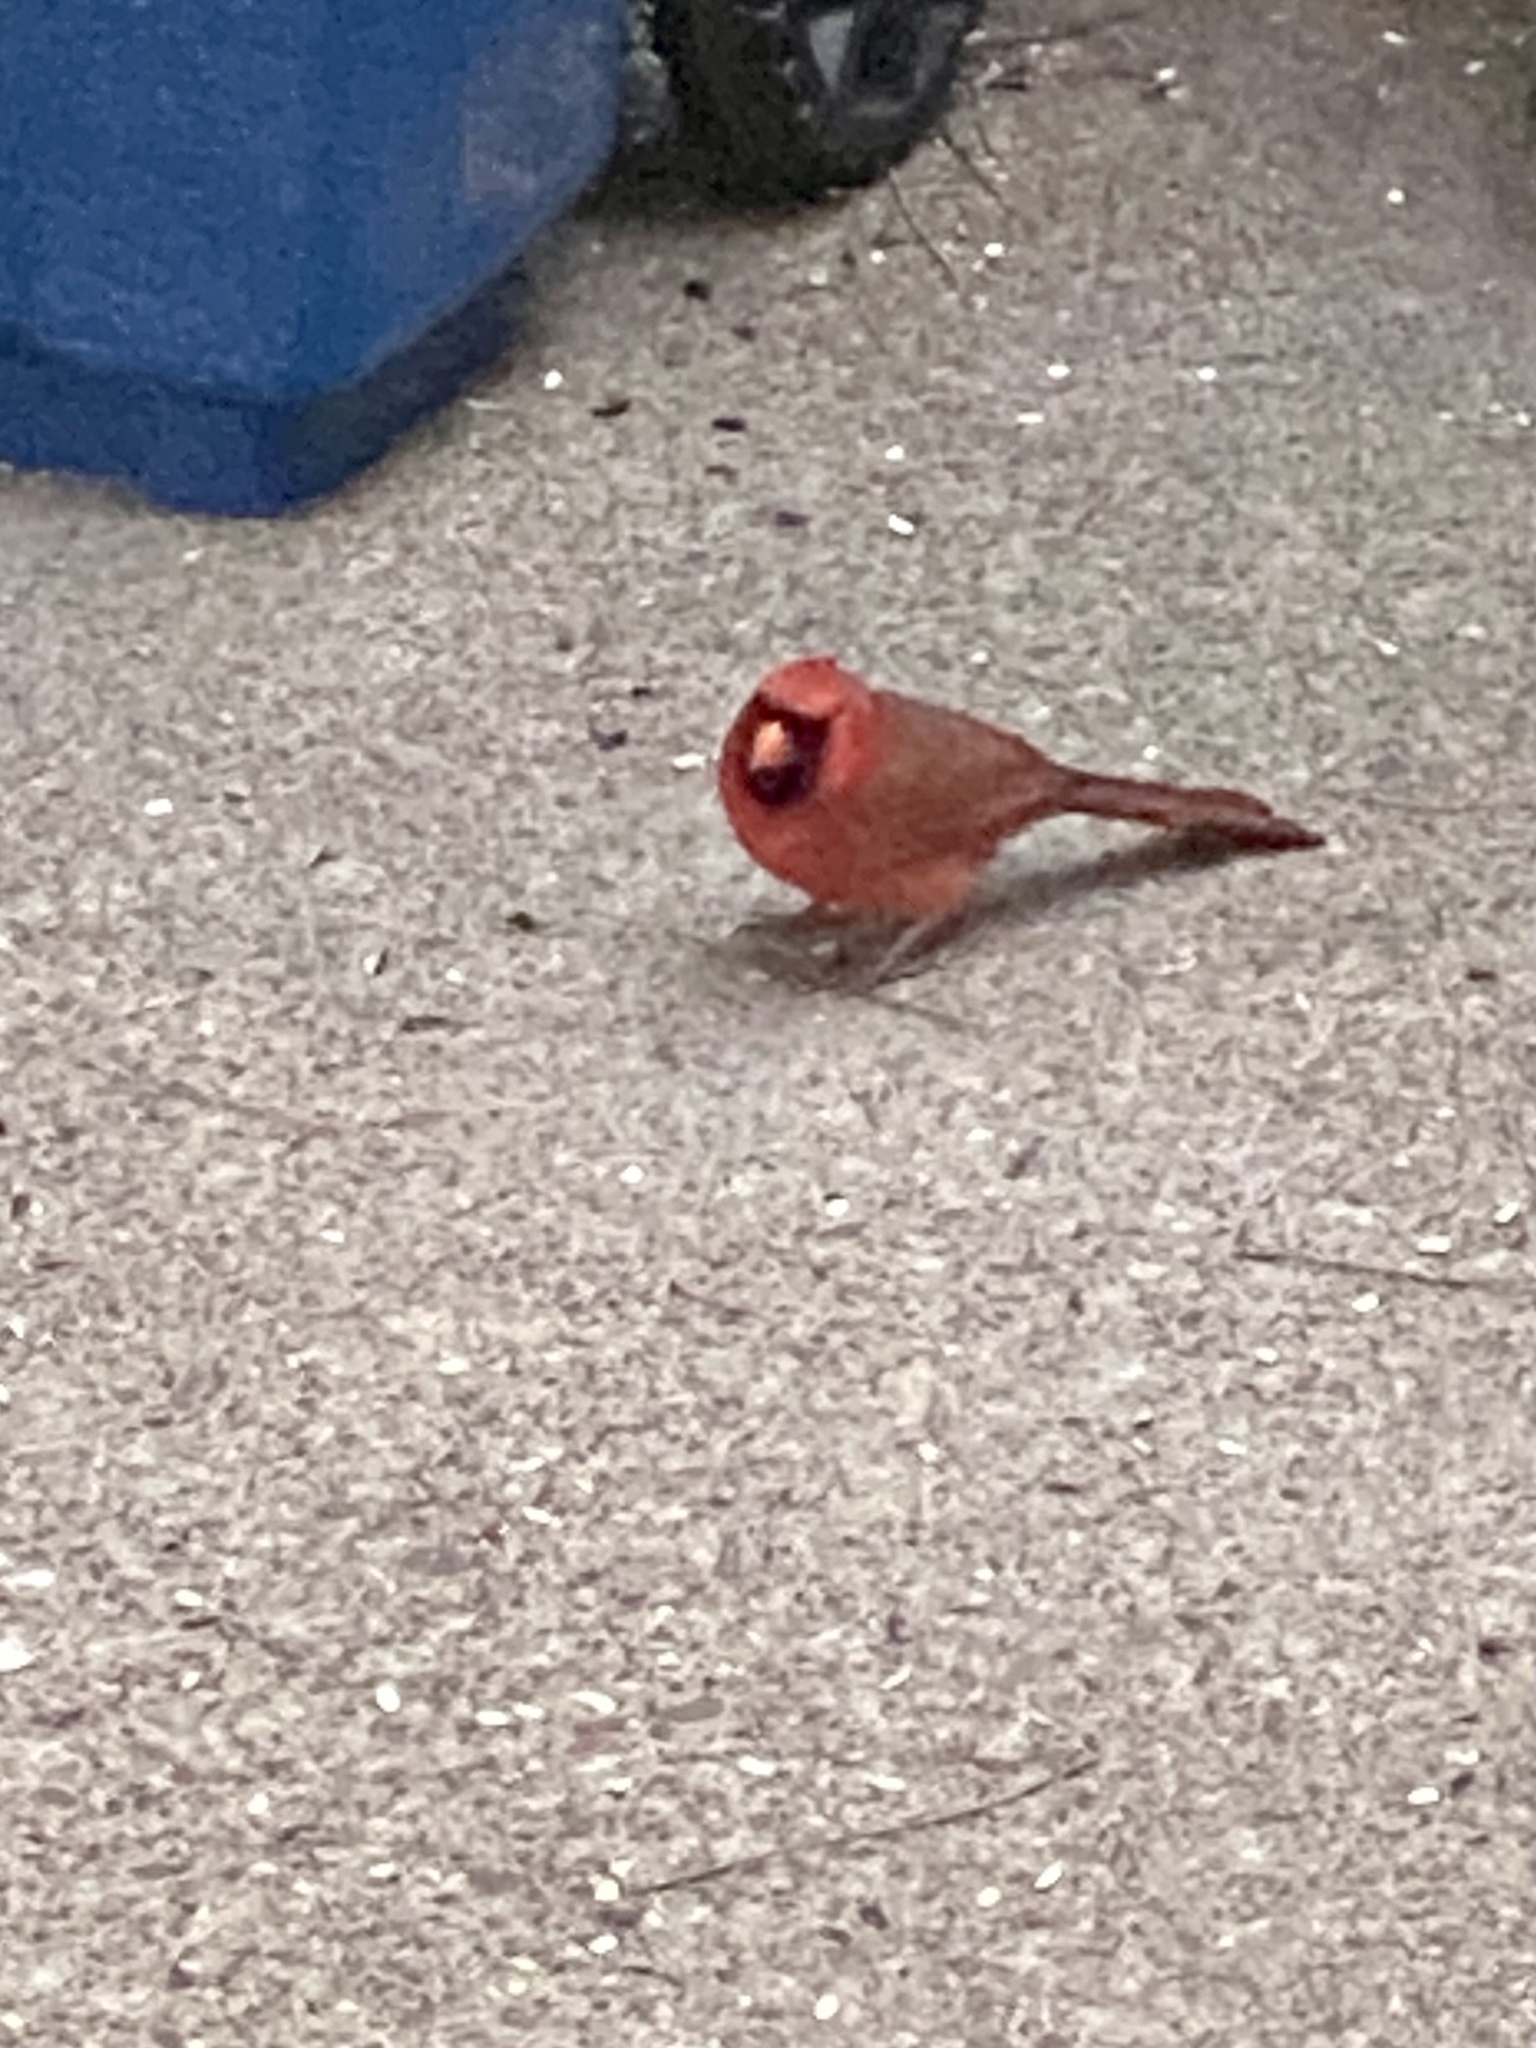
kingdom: Animalia
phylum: Chordata
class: Aves
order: Passeriformes
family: Cardinalidae
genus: Cardinalis
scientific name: Cardinalis cardinalis
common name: Northern cardinal
